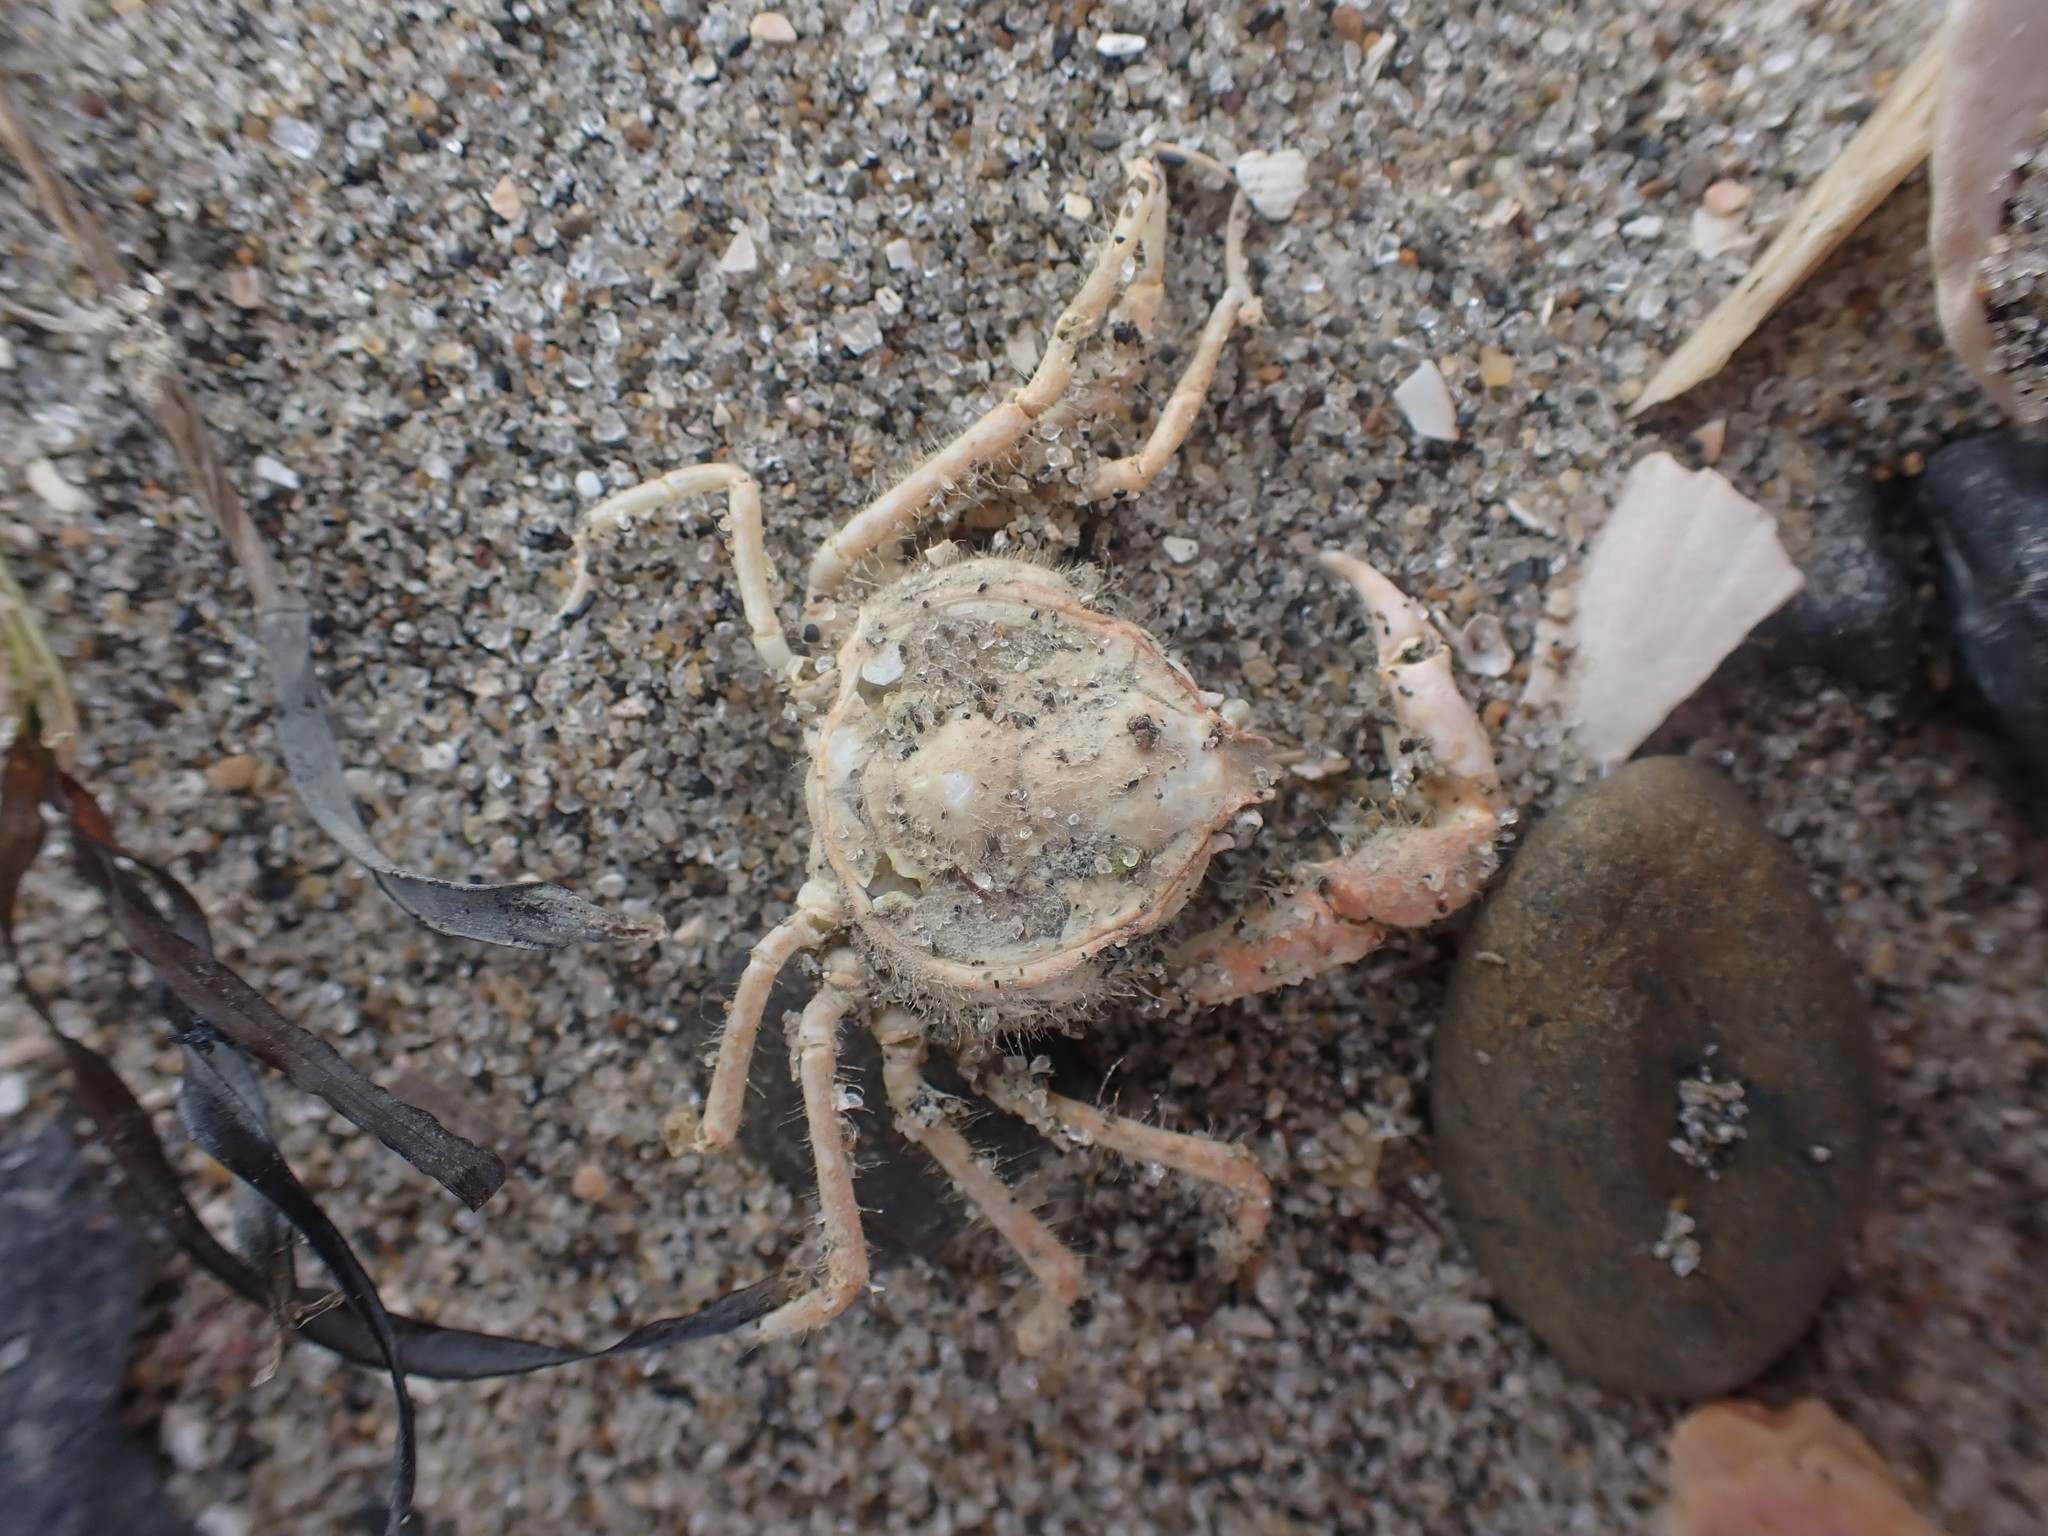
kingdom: Animalia
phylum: Arthropoda
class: Malacostraca
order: Decapoda
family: Hymenosomatidae
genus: Halicarcinus
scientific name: Halicarcinus whitei
